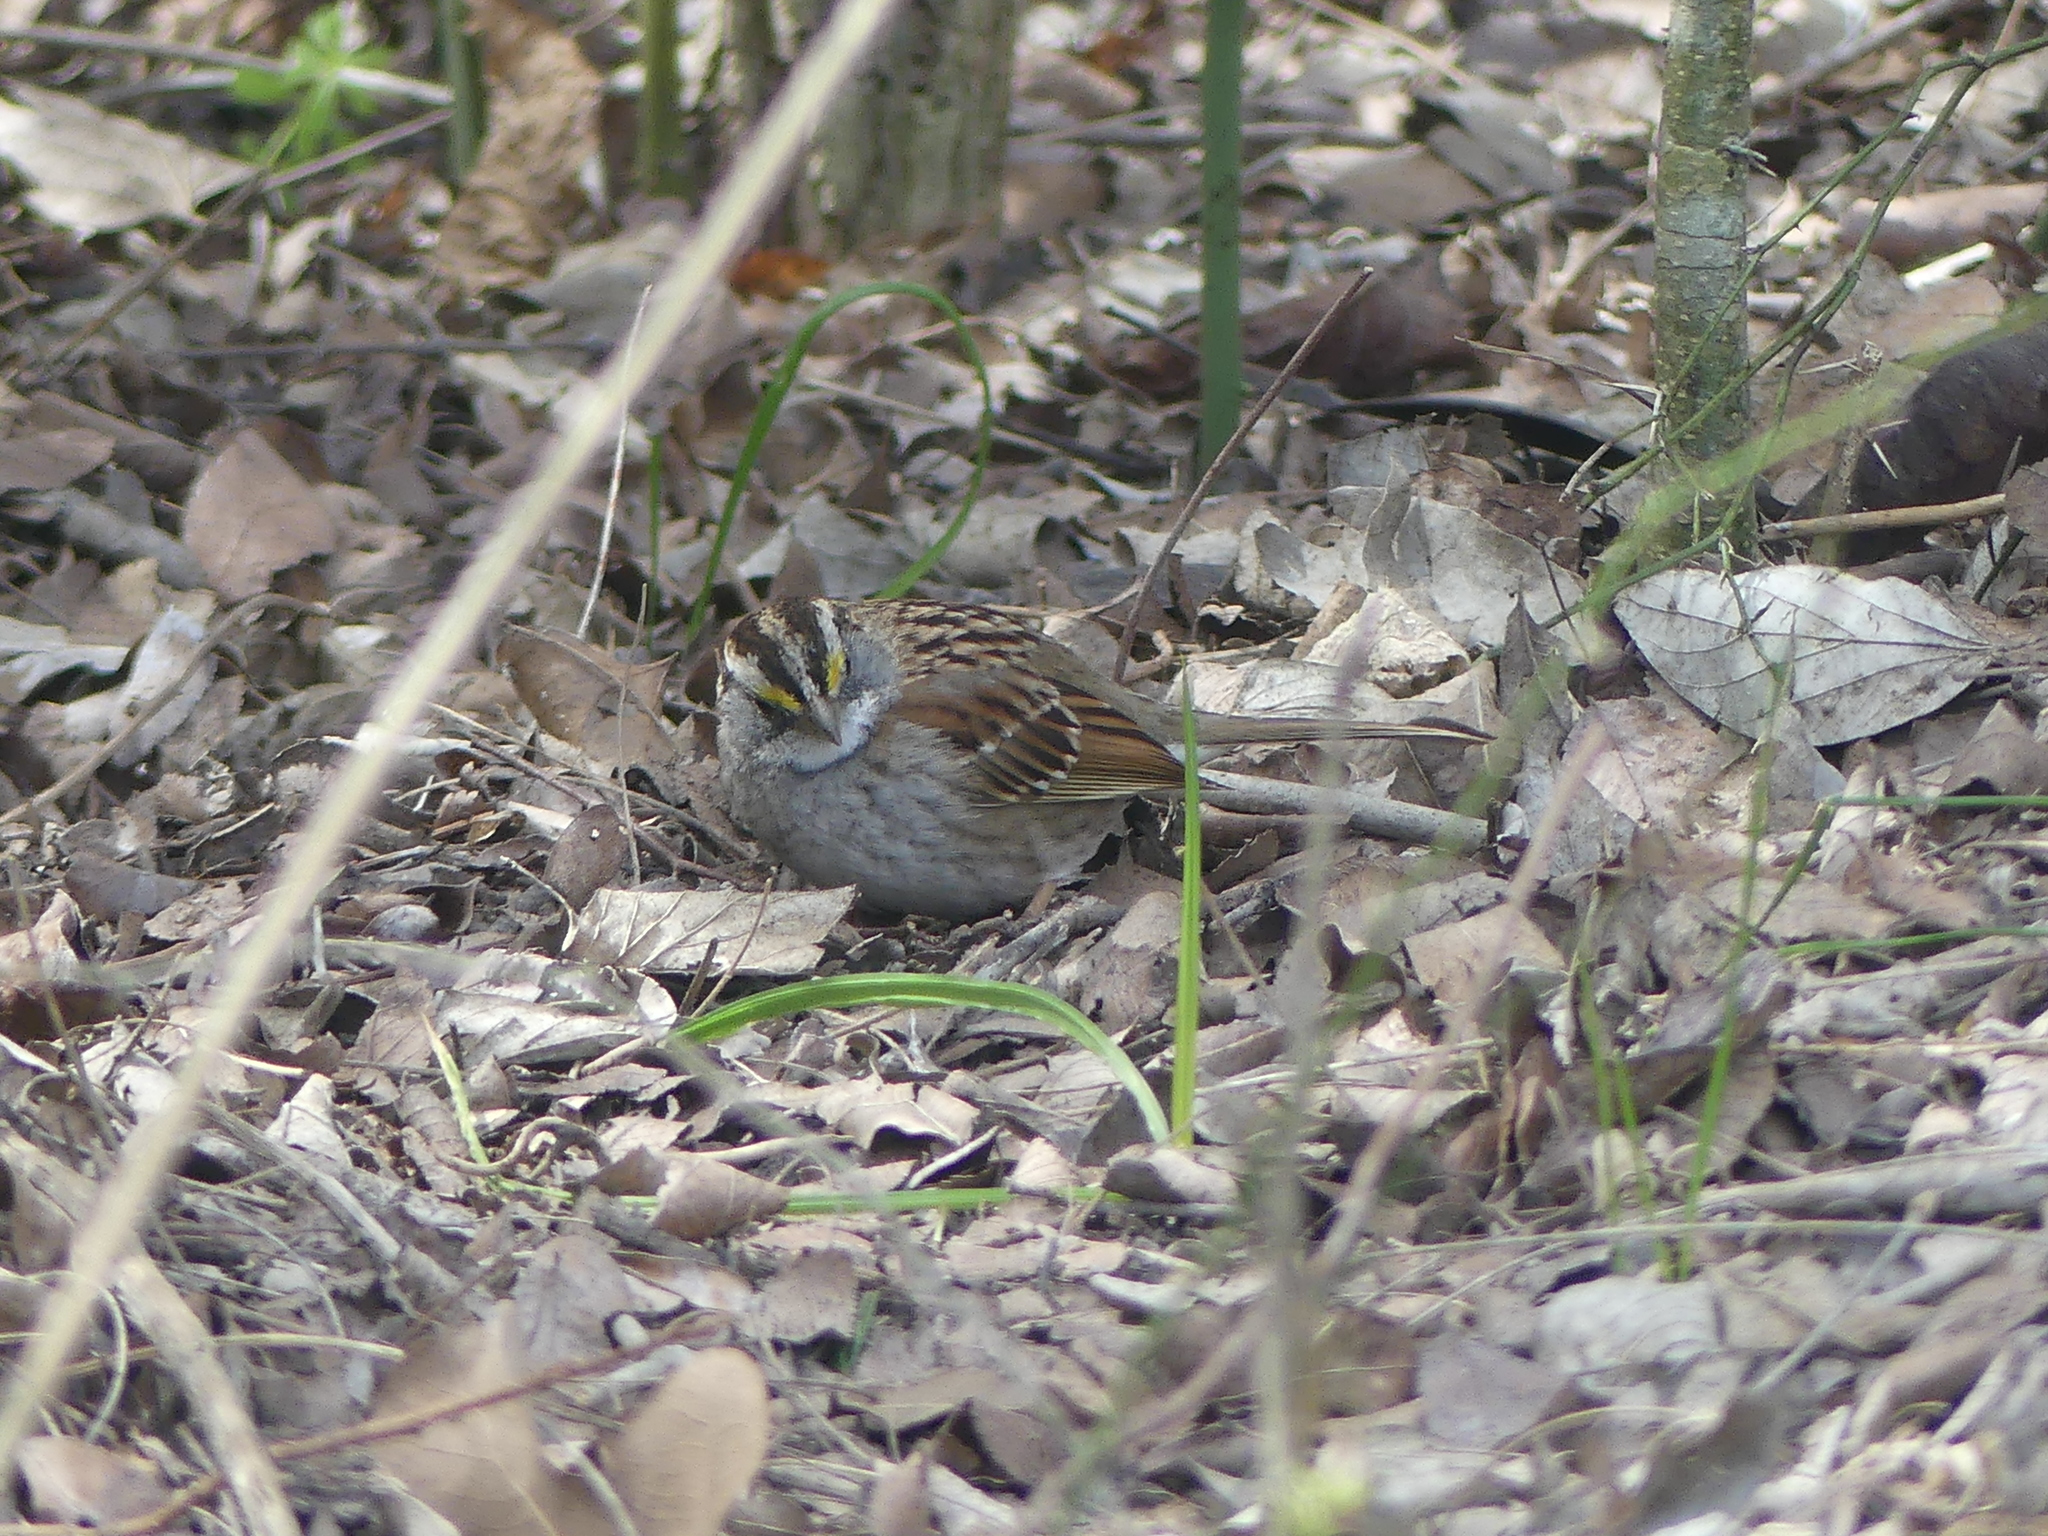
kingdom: Animalia
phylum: Chordata
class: Aves
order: Passeriformes
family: Passerellidae
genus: Zonotrichia
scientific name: Zonotrichia albicollis
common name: White-throated sparrow
